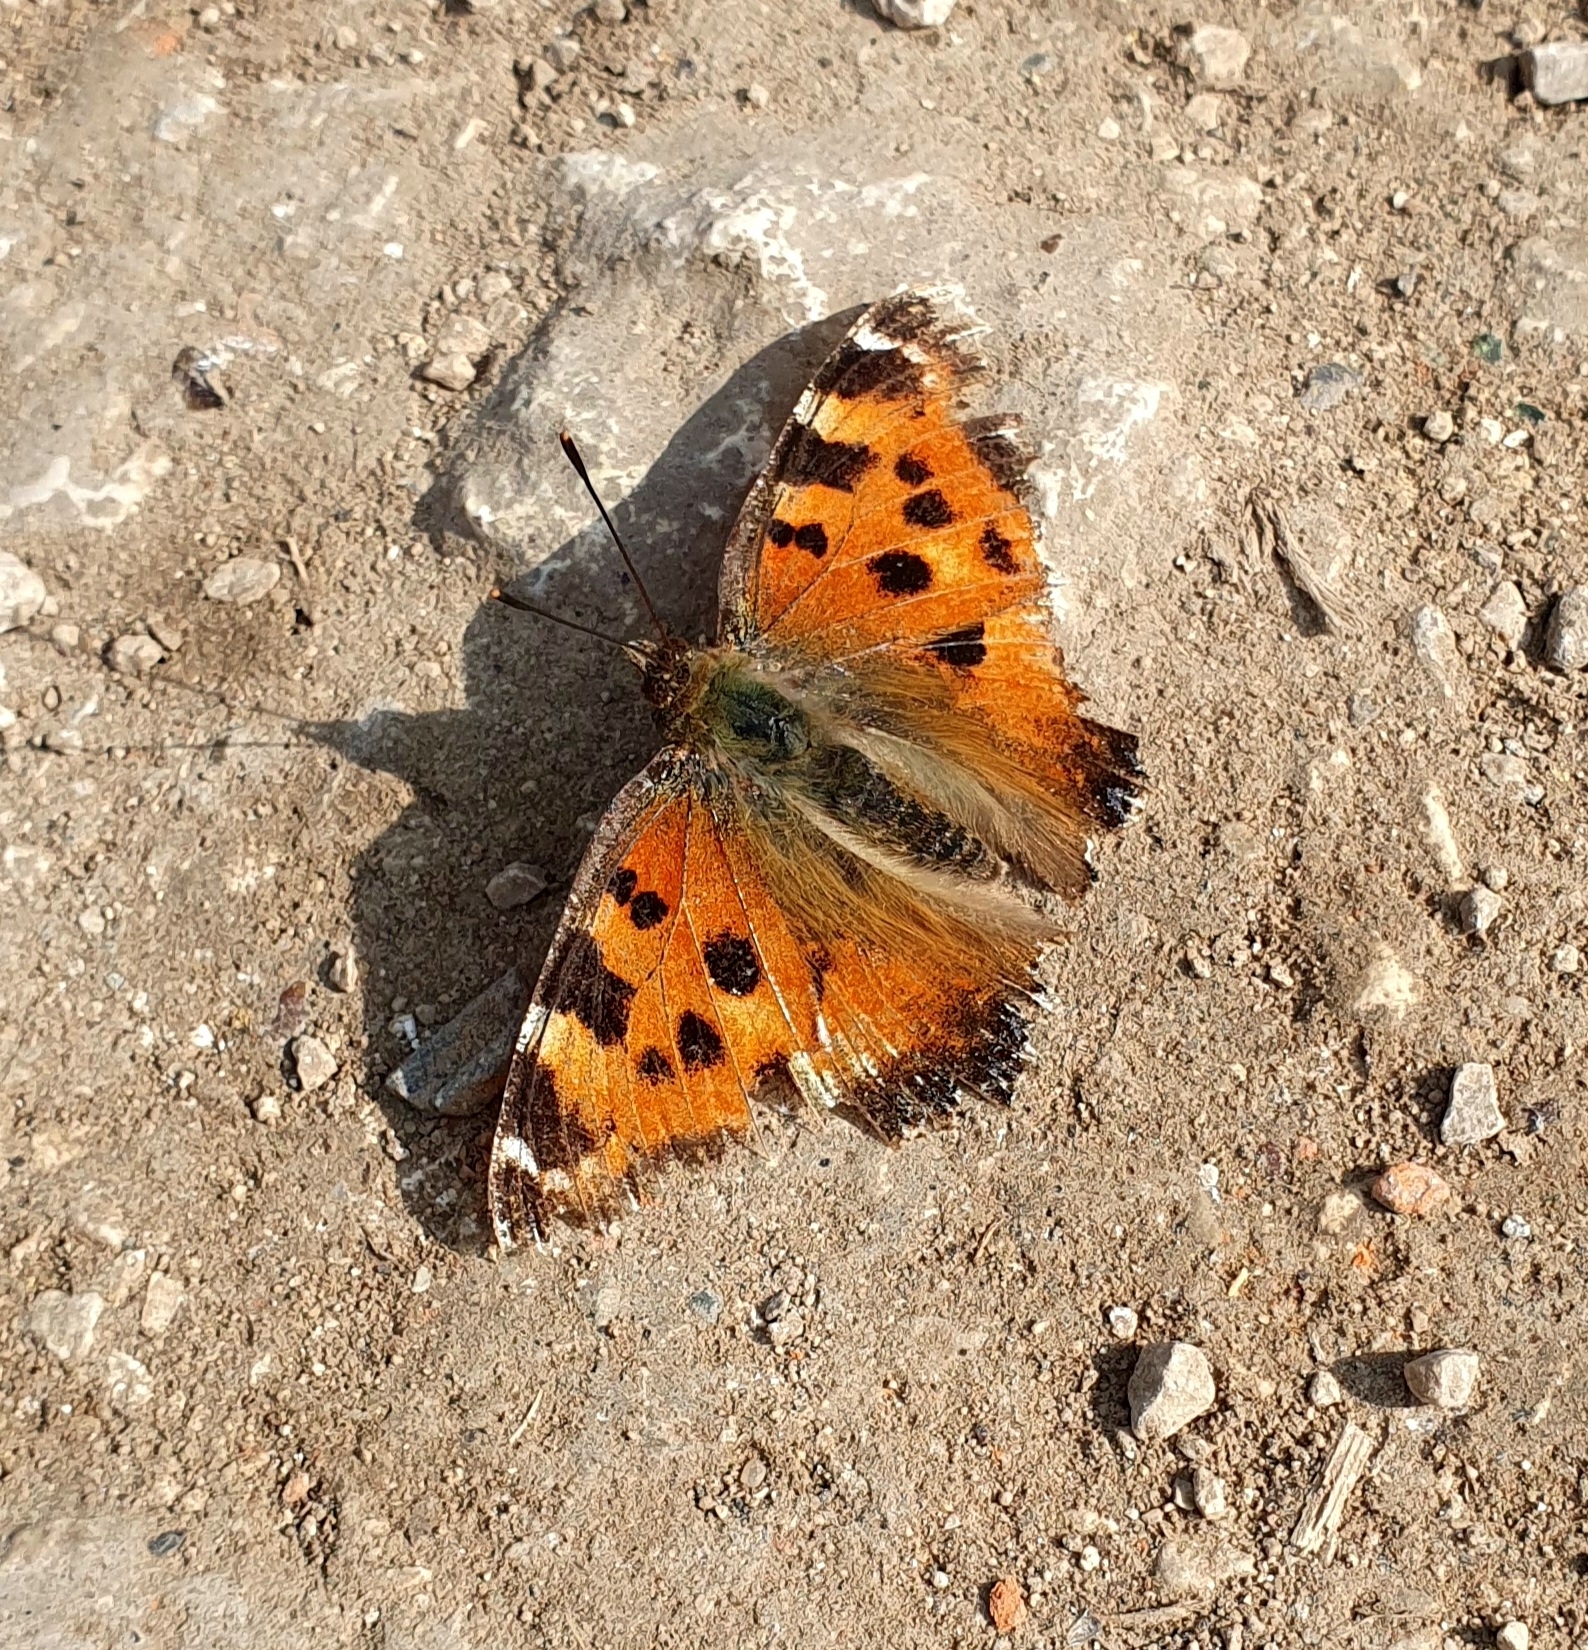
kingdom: Animalia
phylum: Arthropoda
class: Insecta
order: Lepidoptera
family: Nymphalidae
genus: Nymphalis
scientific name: Nymphalis xanthomelas
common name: Scarce tortoiseshell
